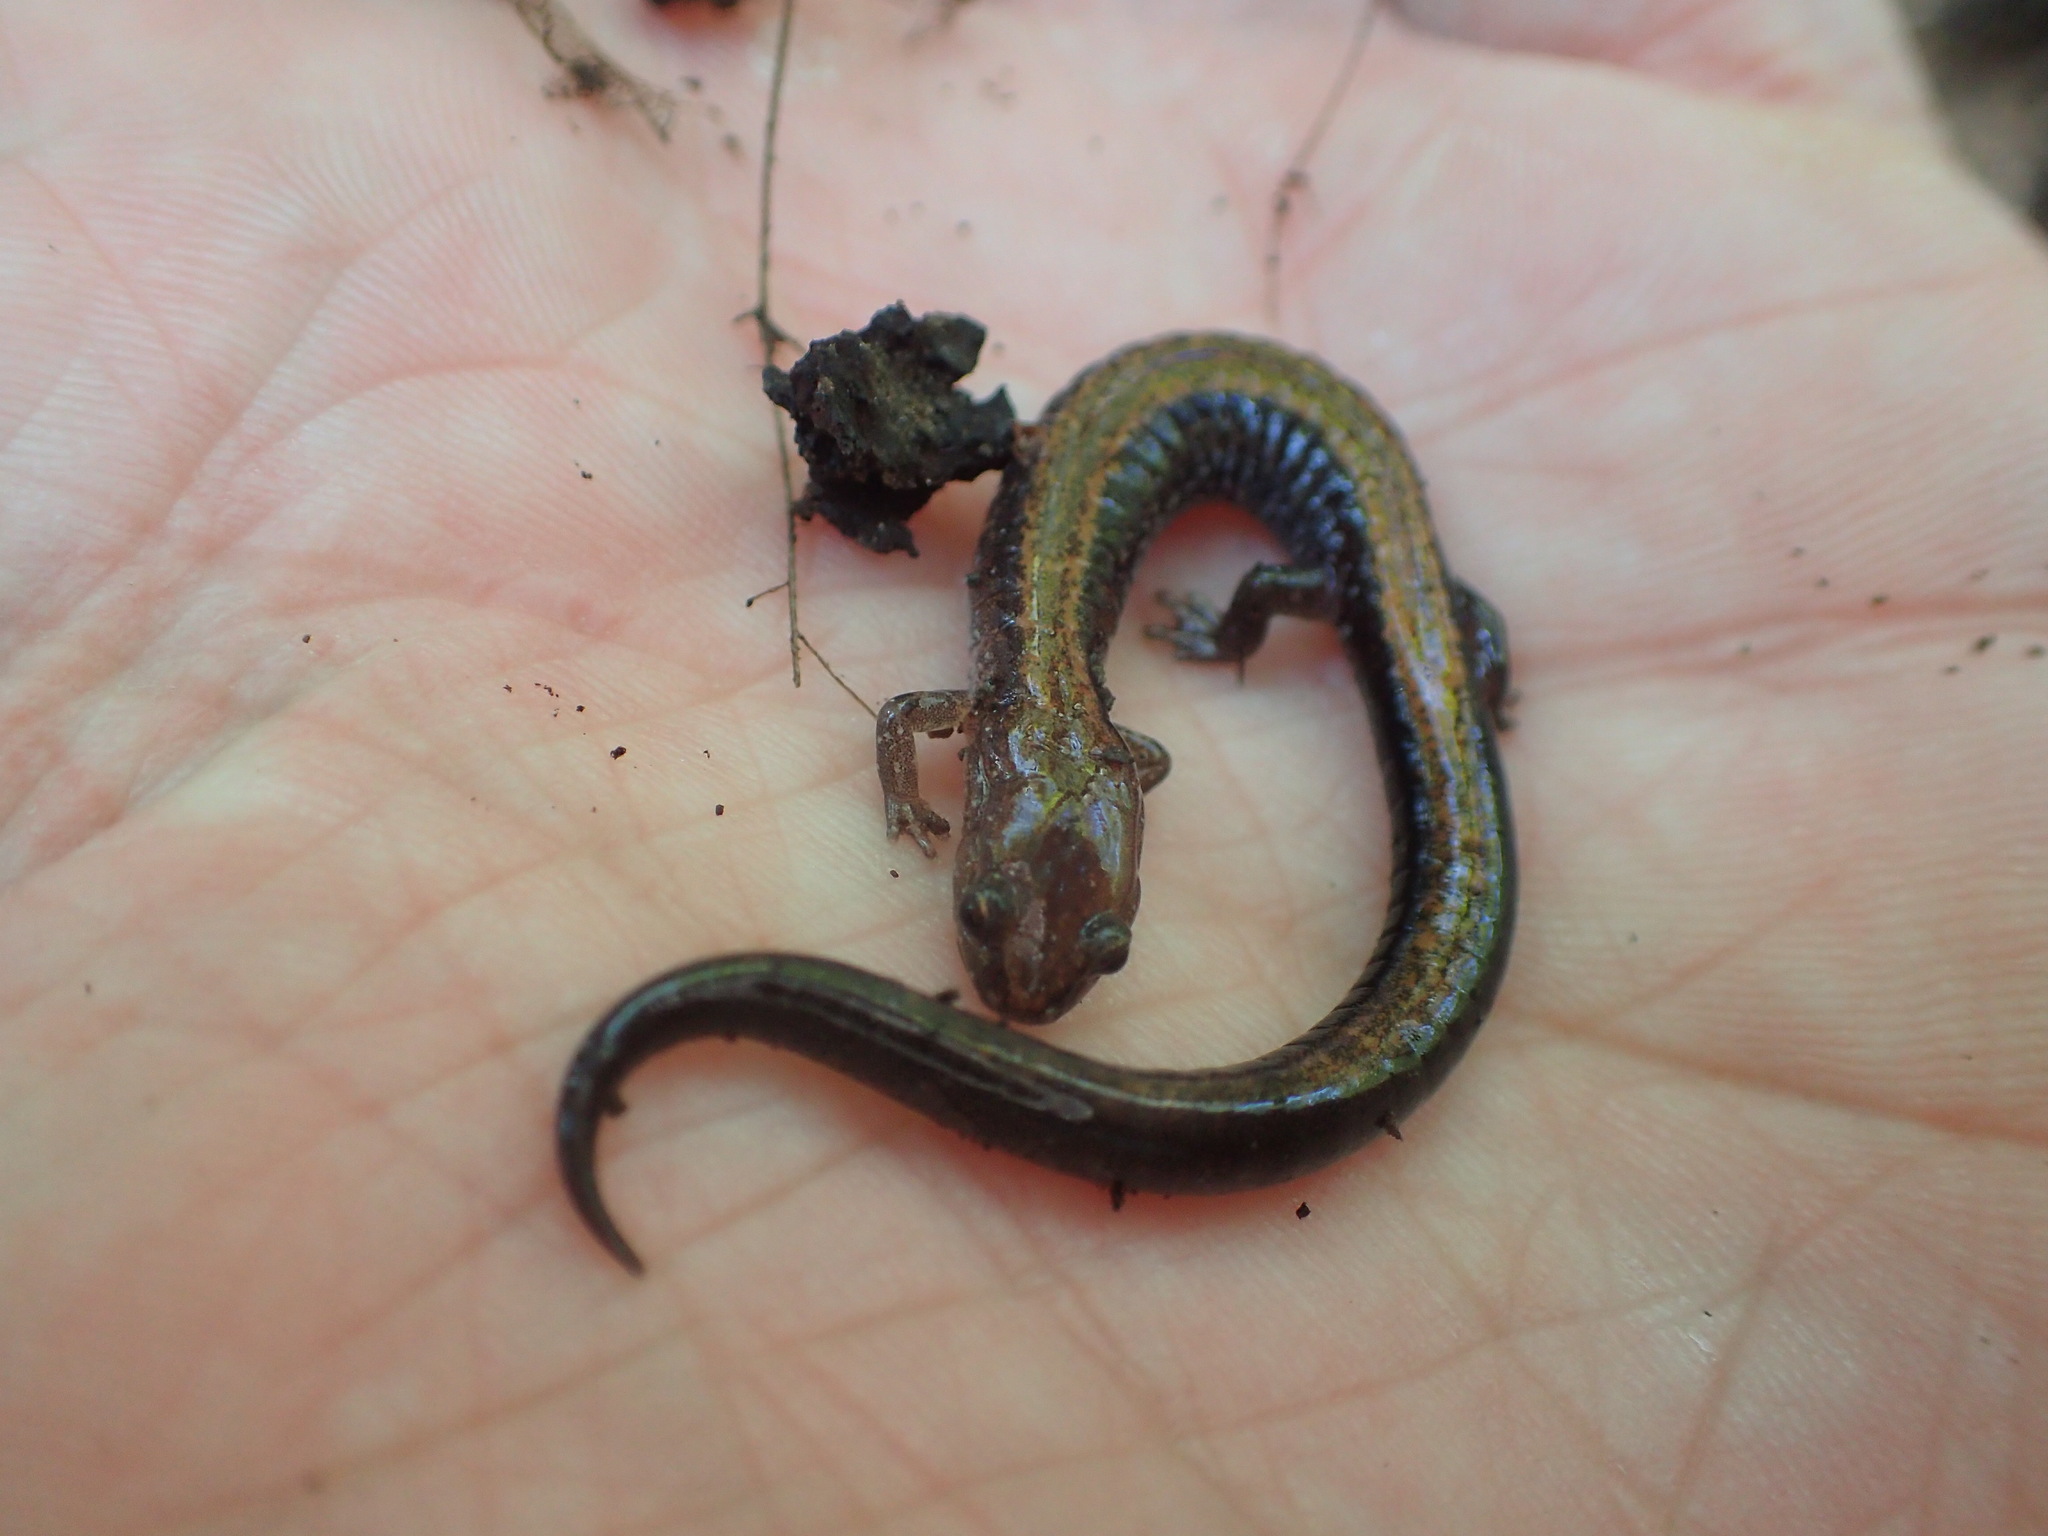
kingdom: Animalia
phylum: Chordata
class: Amphibia
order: Caudata
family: Plethodontidae
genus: Plethodon
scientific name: Plethodon cinereus
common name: Redback salamander
